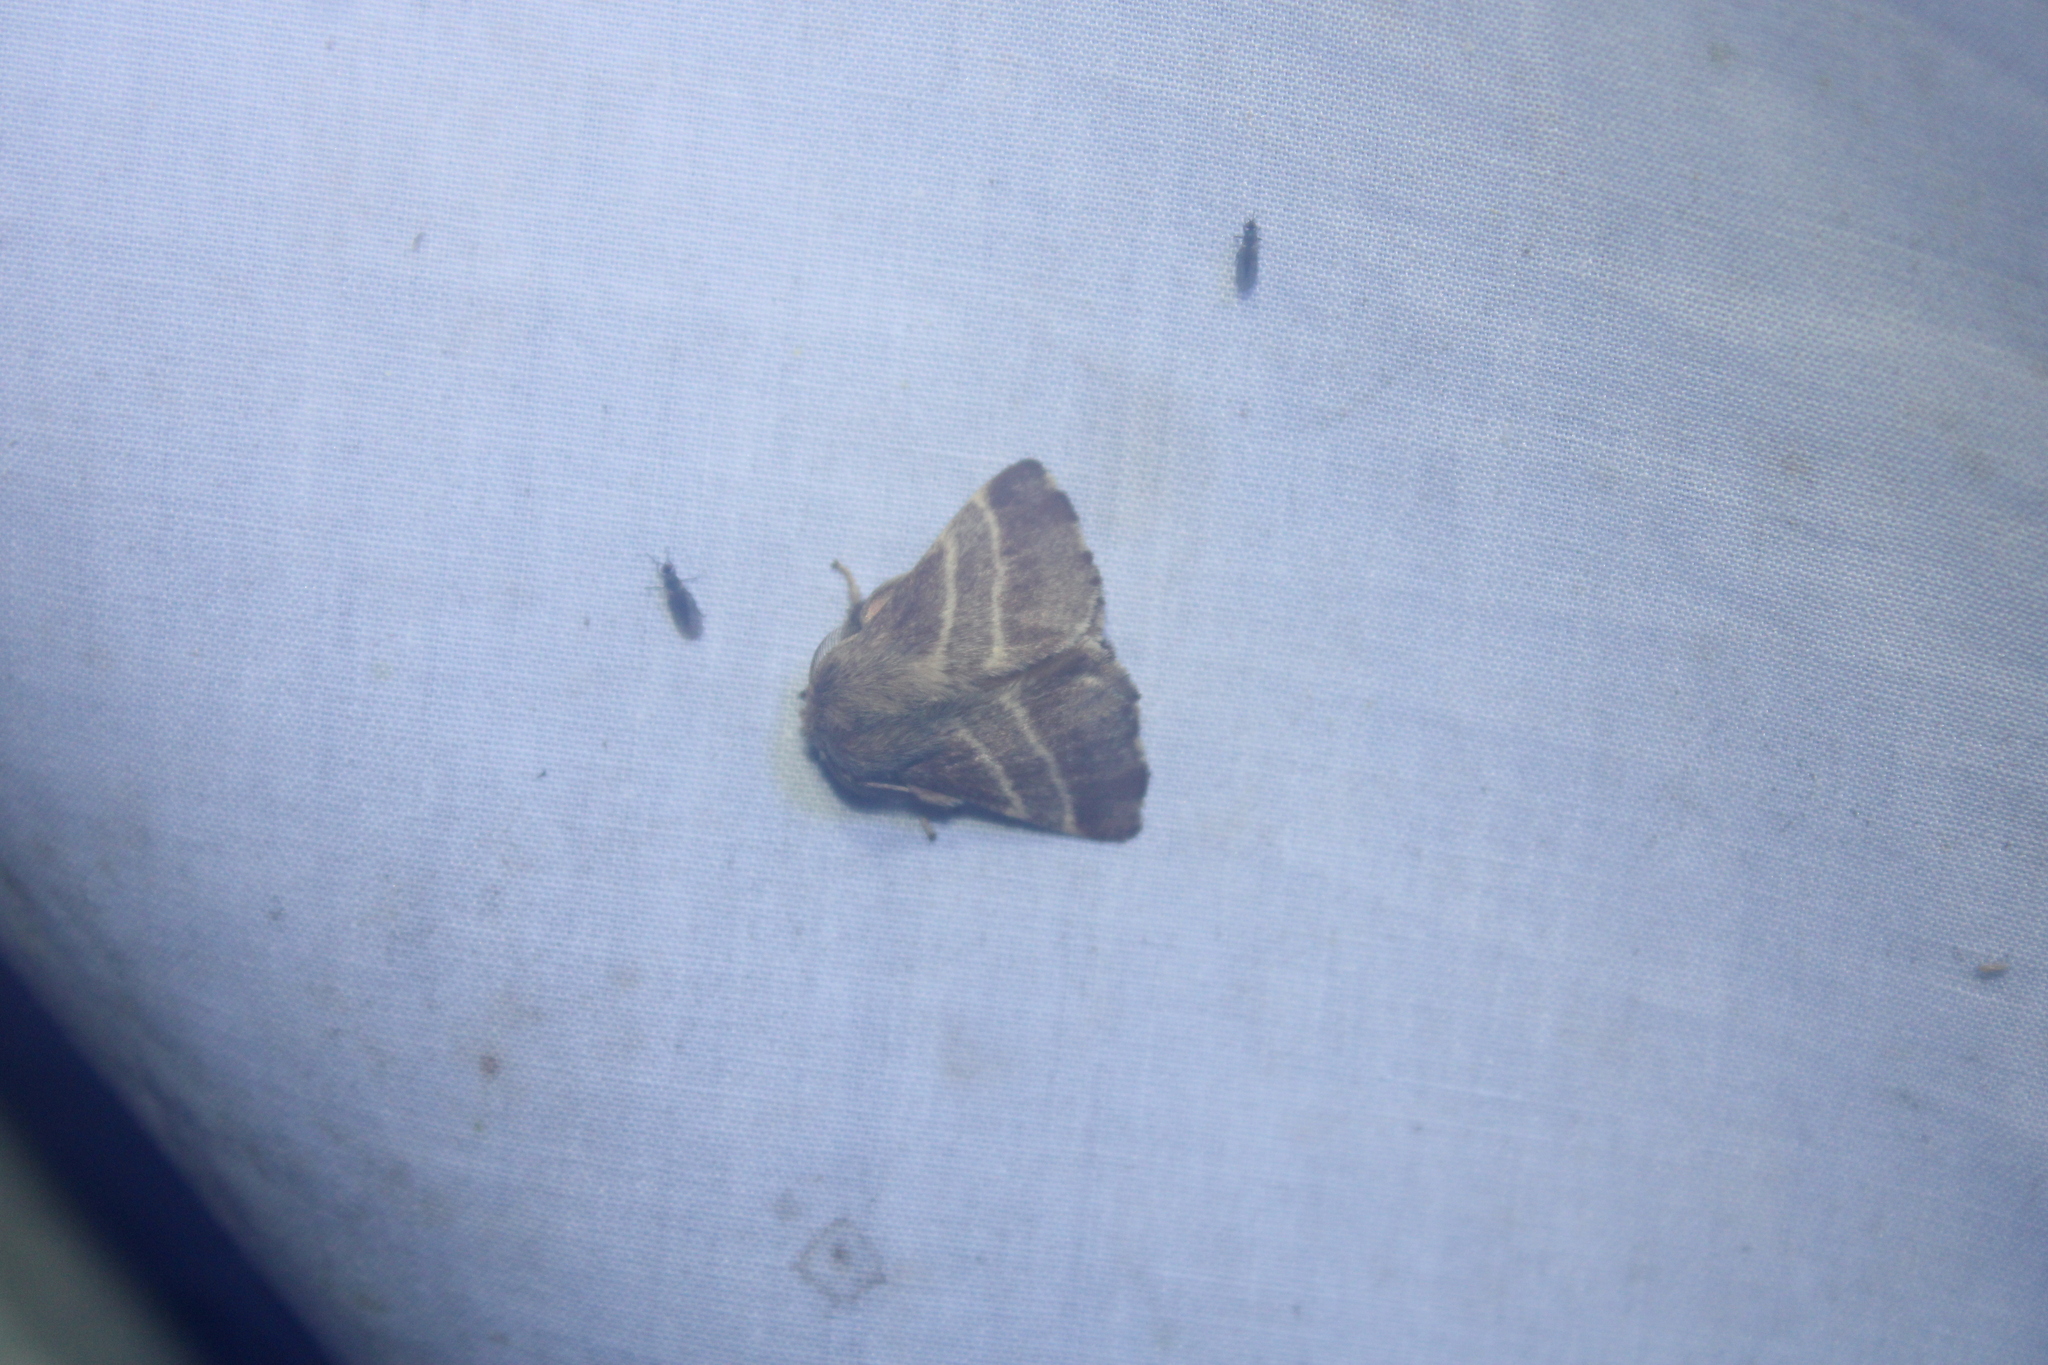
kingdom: Animalia
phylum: Arthropoda
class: Insecta
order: Lepidoptera
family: Lasiocampidae
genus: Malacosoma
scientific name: Malacosoma americana
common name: Eastern tent caterpillar moth
